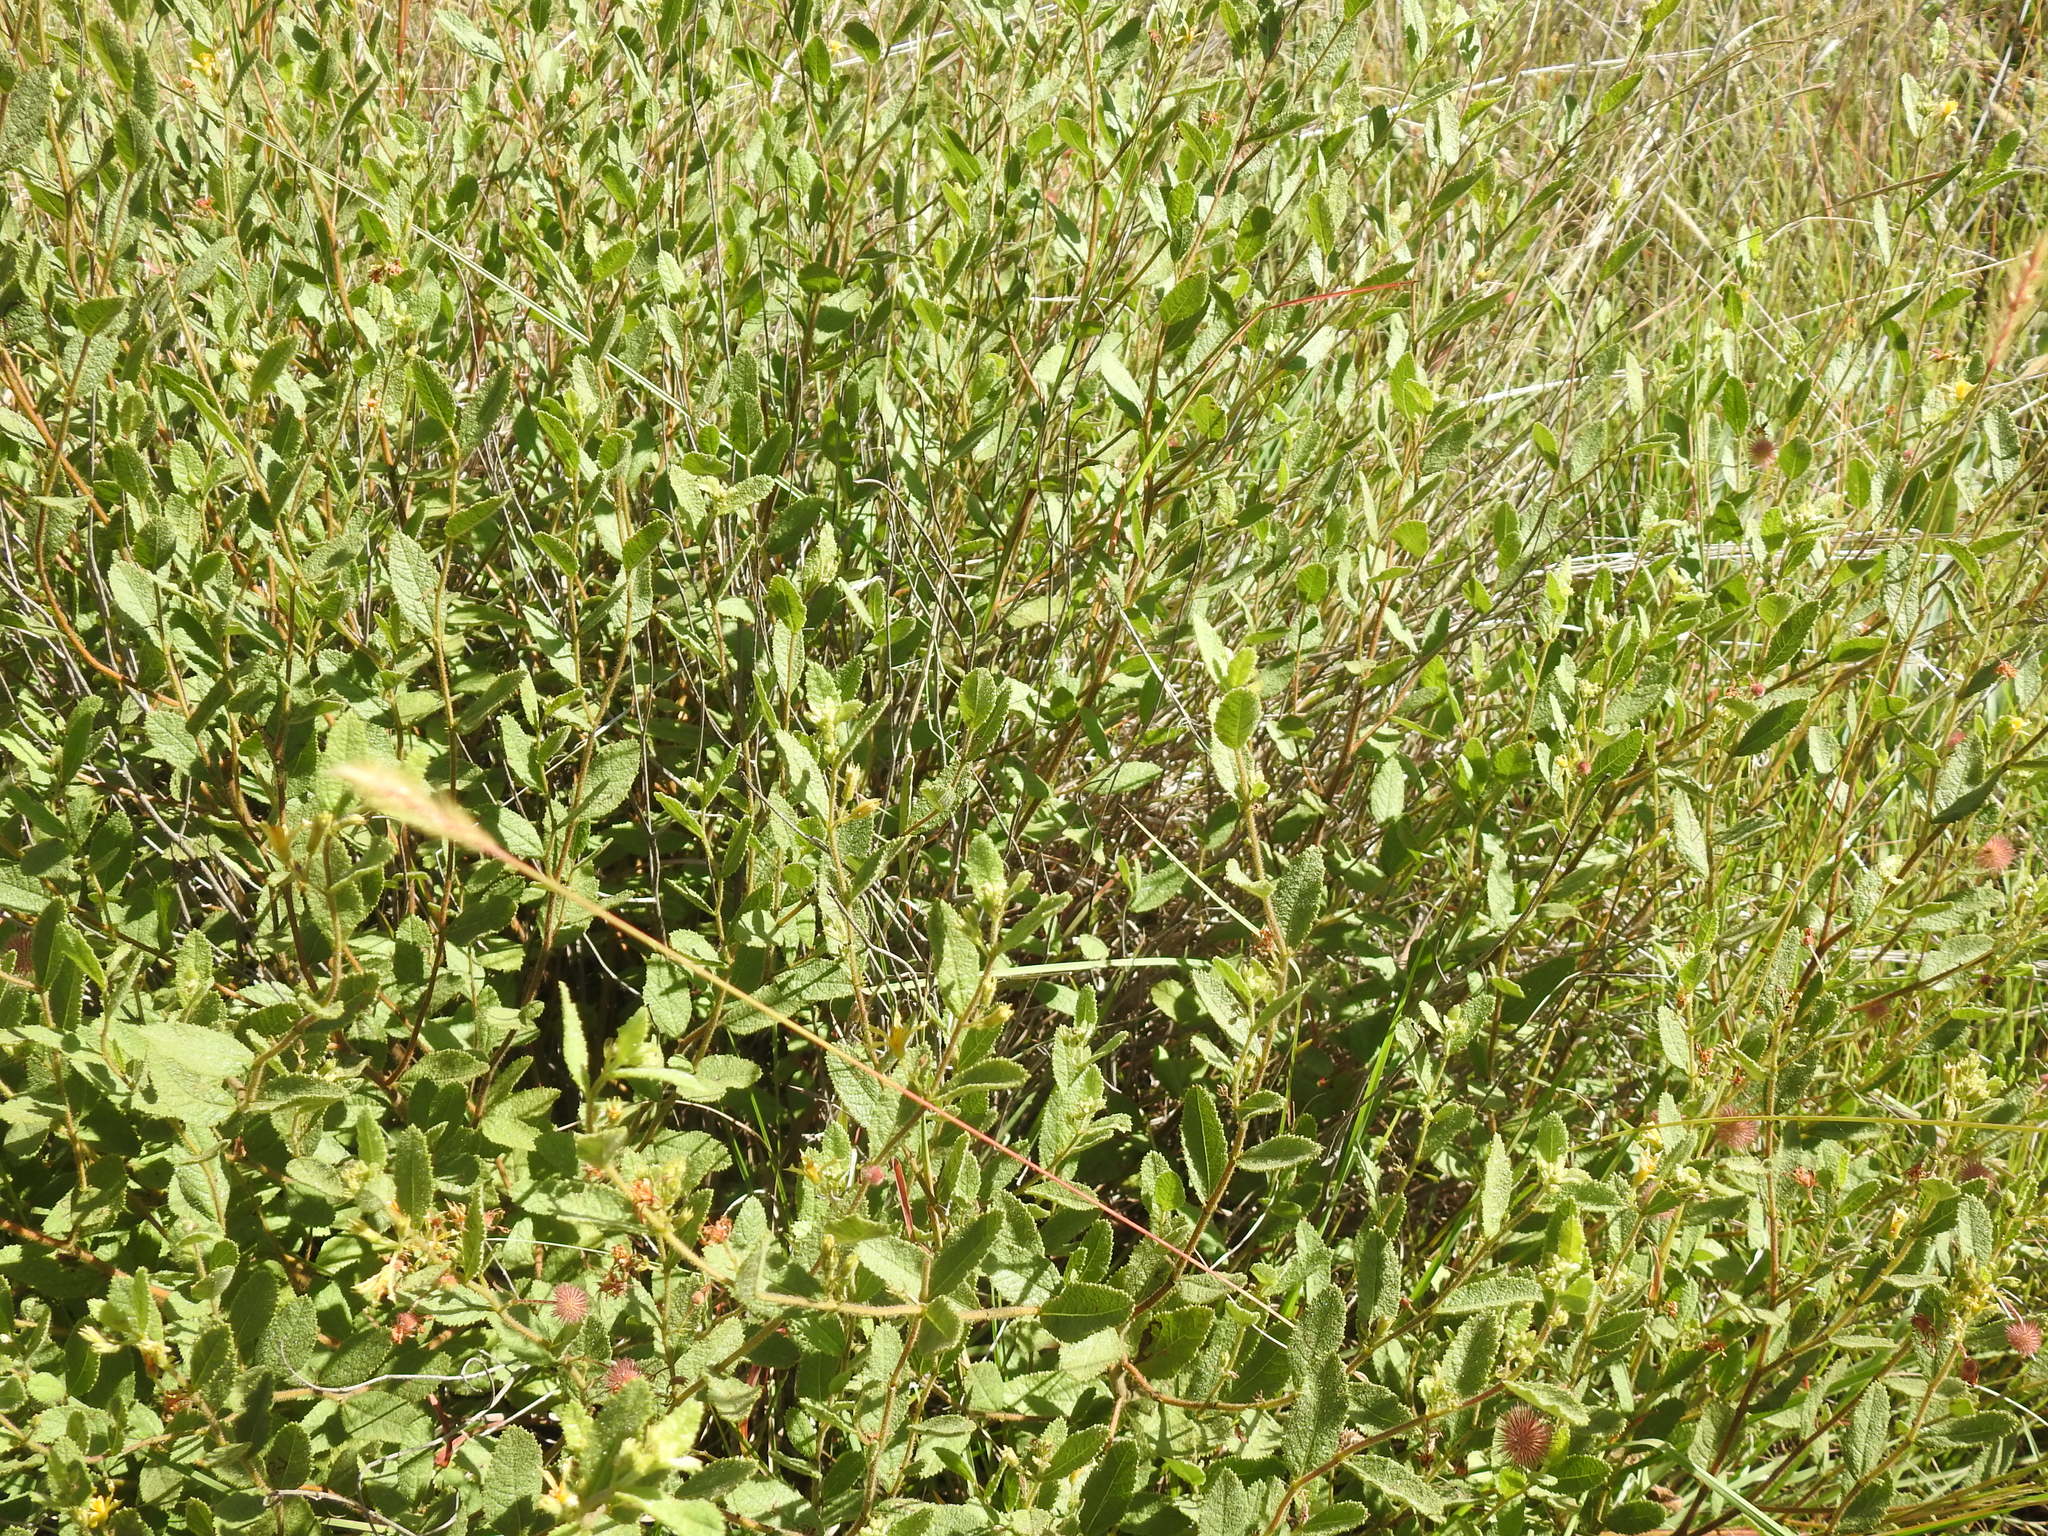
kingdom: Plantae
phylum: Tracheophyta
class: Magnoliopsida
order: Malvales
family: Malvaceae
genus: Triumfetta
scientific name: Triumfetta sonderi
